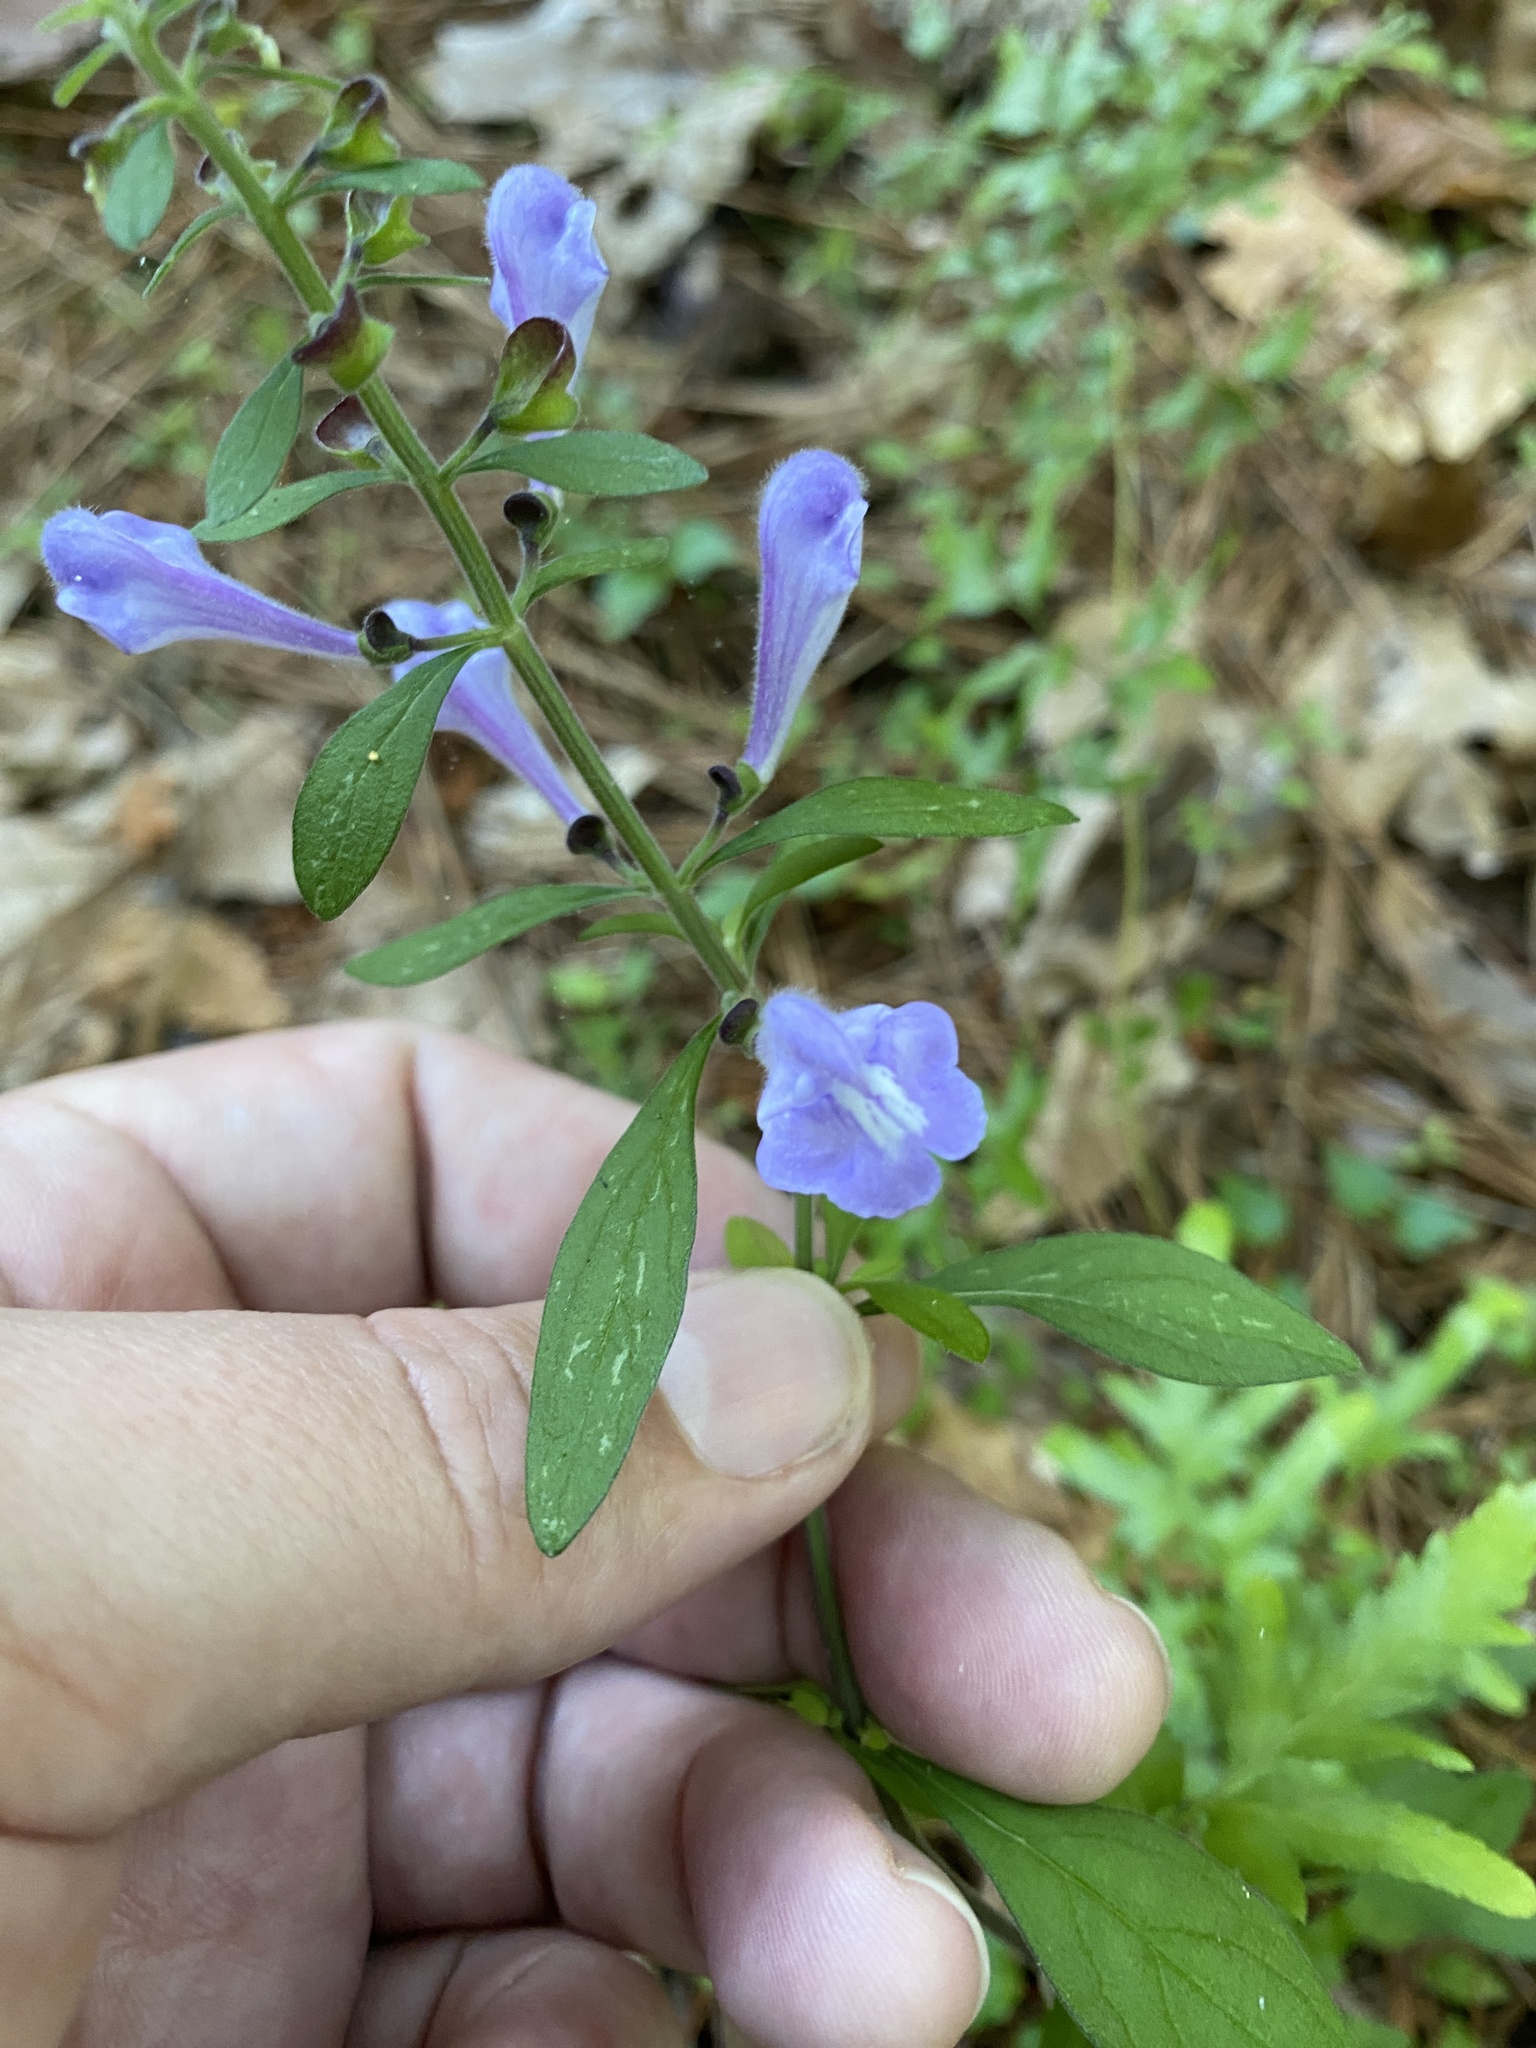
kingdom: Plantae
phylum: Tracheophyta
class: Magnoliopsida
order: Lamiales
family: Lamiaceae
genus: Scutellaria
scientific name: Scutellaria integrifolia
